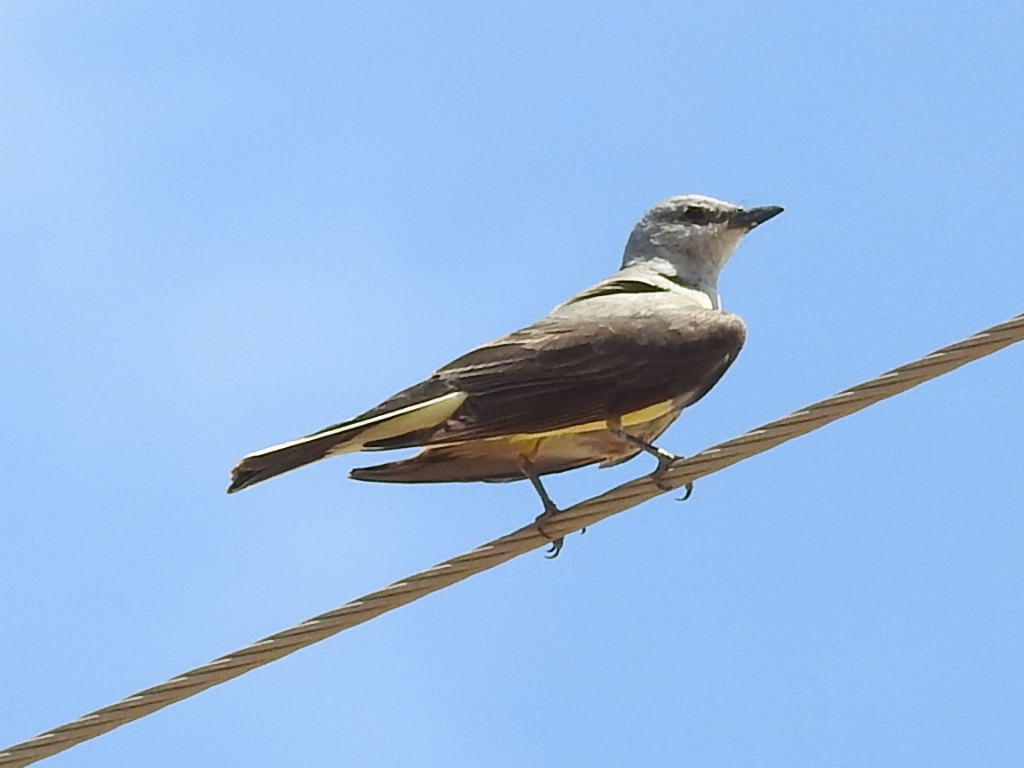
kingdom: Animalia
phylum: Chordata
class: Aves
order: Passeriformes
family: Tyrannidae
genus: Tyrannus
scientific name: Tyrannus verticalis
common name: Western kingbird
